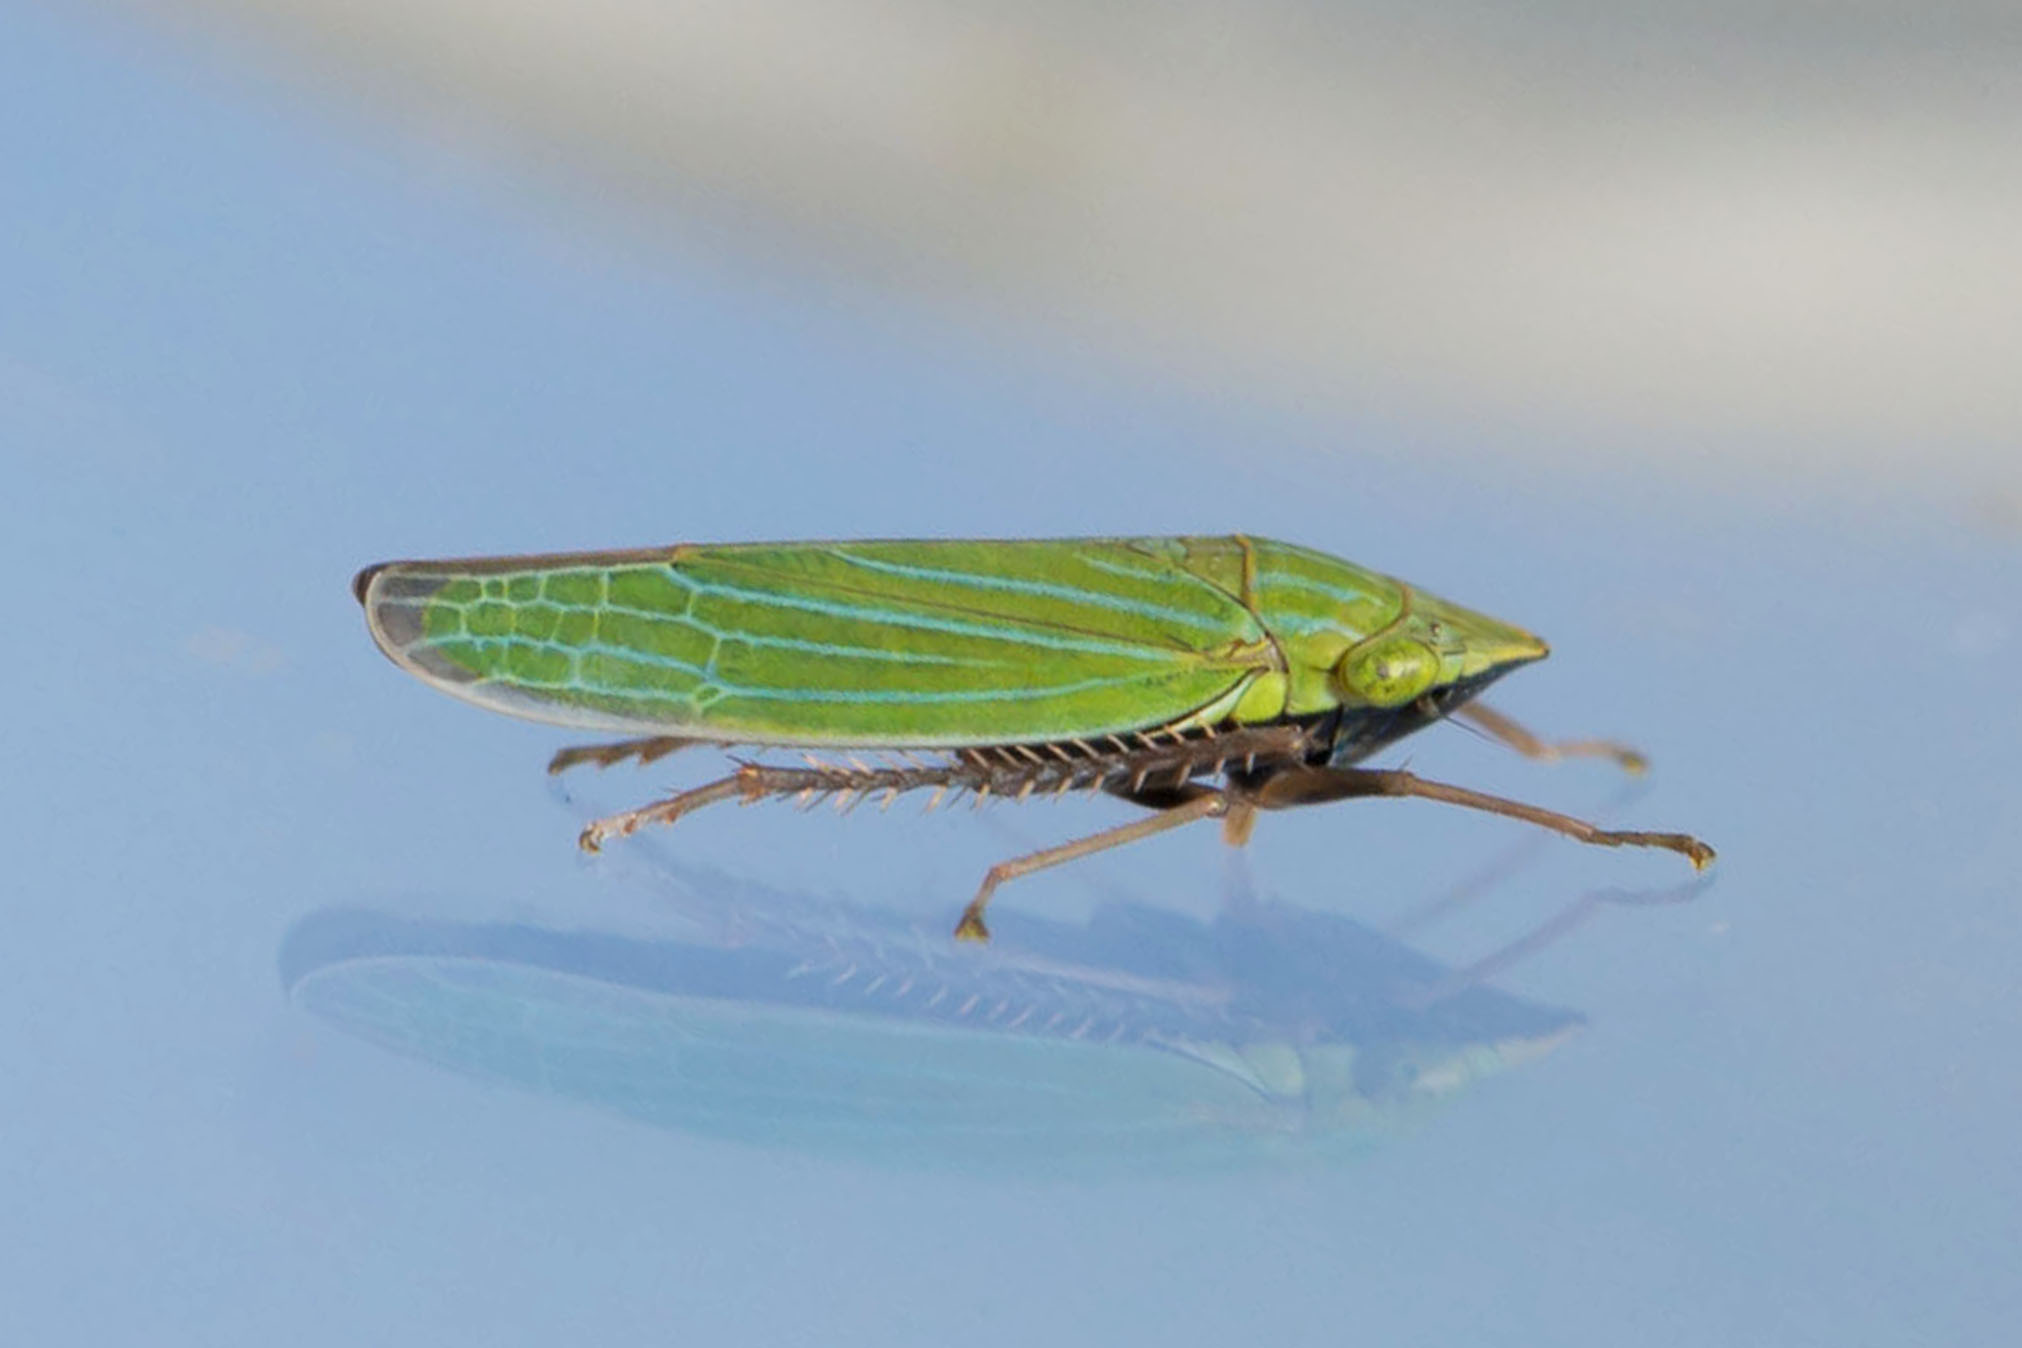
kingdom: Animalia
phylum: Arthropoda
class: Insecta
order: Hemiptera
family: Cicadellidae
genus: Draeculacephala
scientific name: Draeculacephala robinsoni
